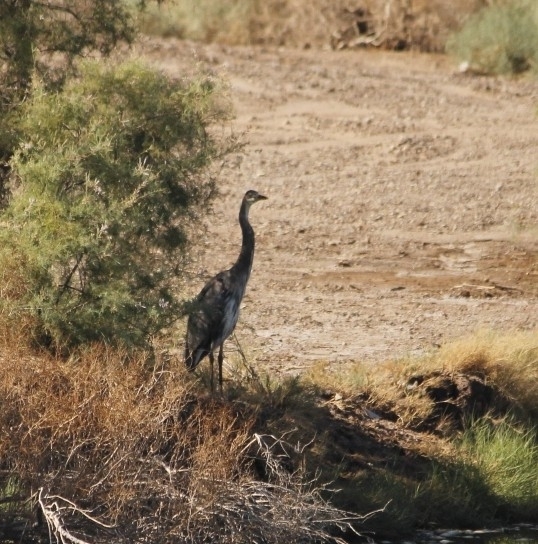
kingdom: Animalia
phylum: Chordata
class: Aves
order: Pelecaniformes
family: Ardeidae
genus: Ardea
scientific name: Ardea herodias
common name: Great blue heron
